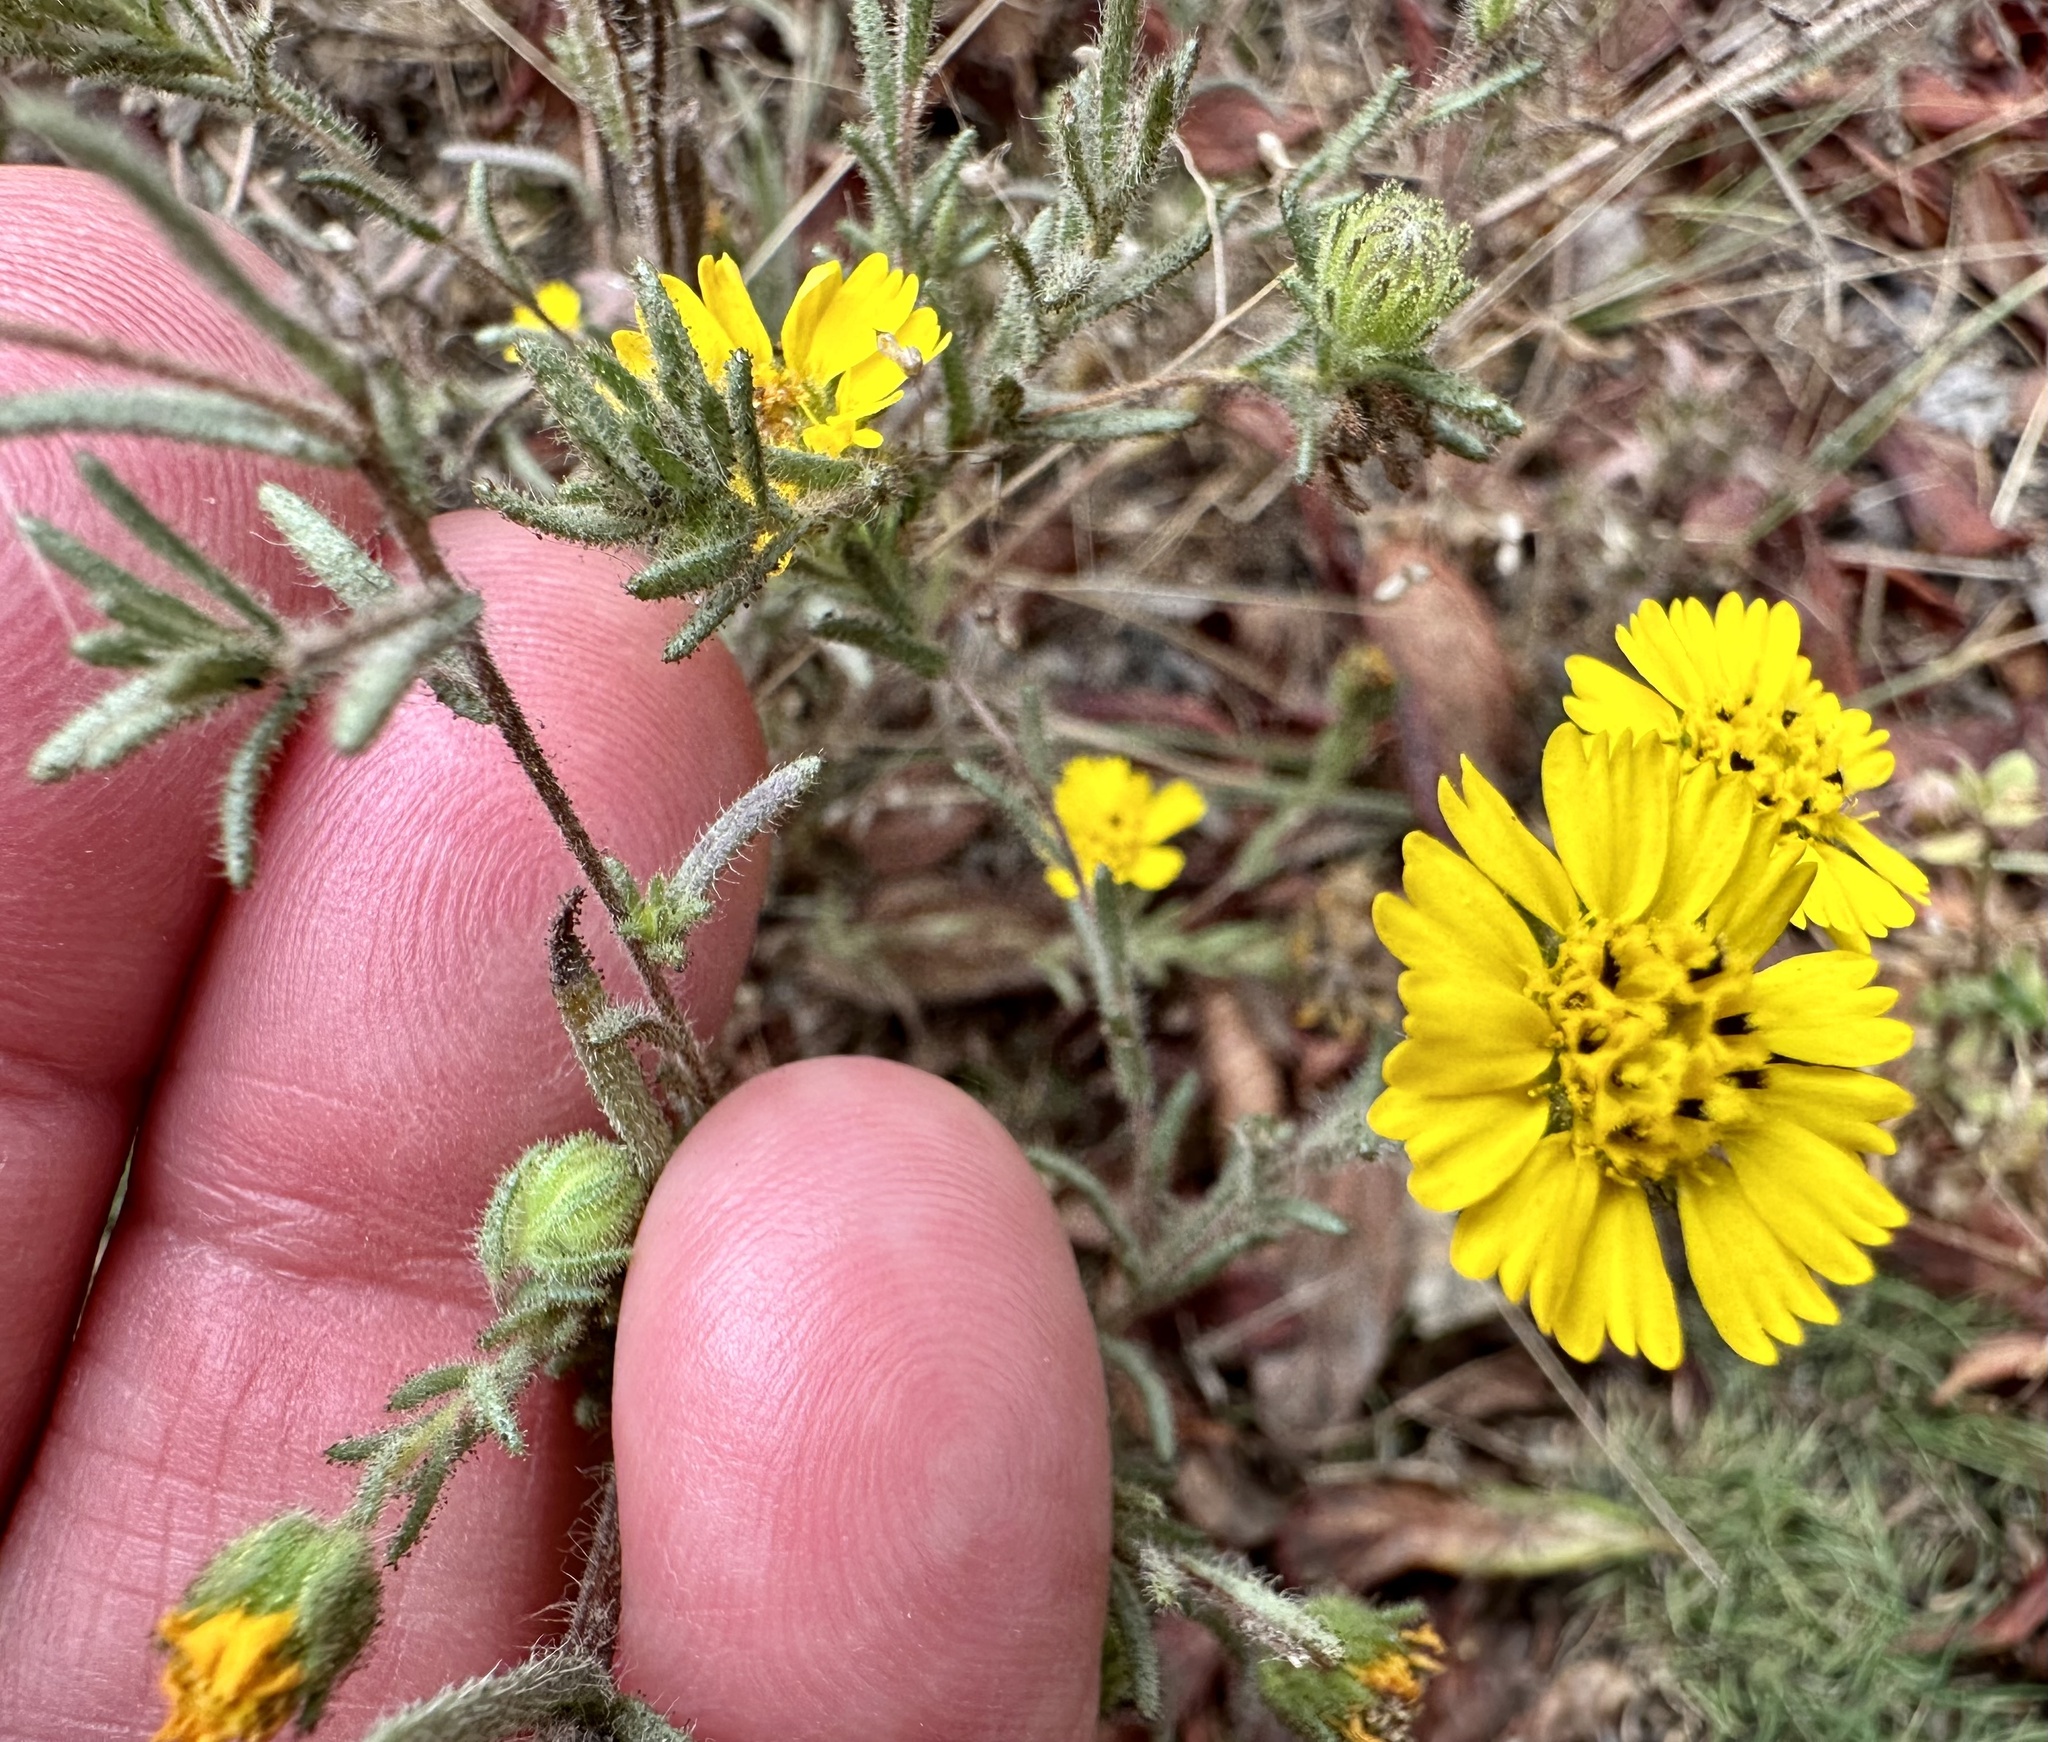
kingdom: Plantae
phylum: Tracheophyta
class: Magnoliopsida
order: Asterales
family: Asteraceae
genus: Deinandra
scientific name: Deinandra corymbosa
